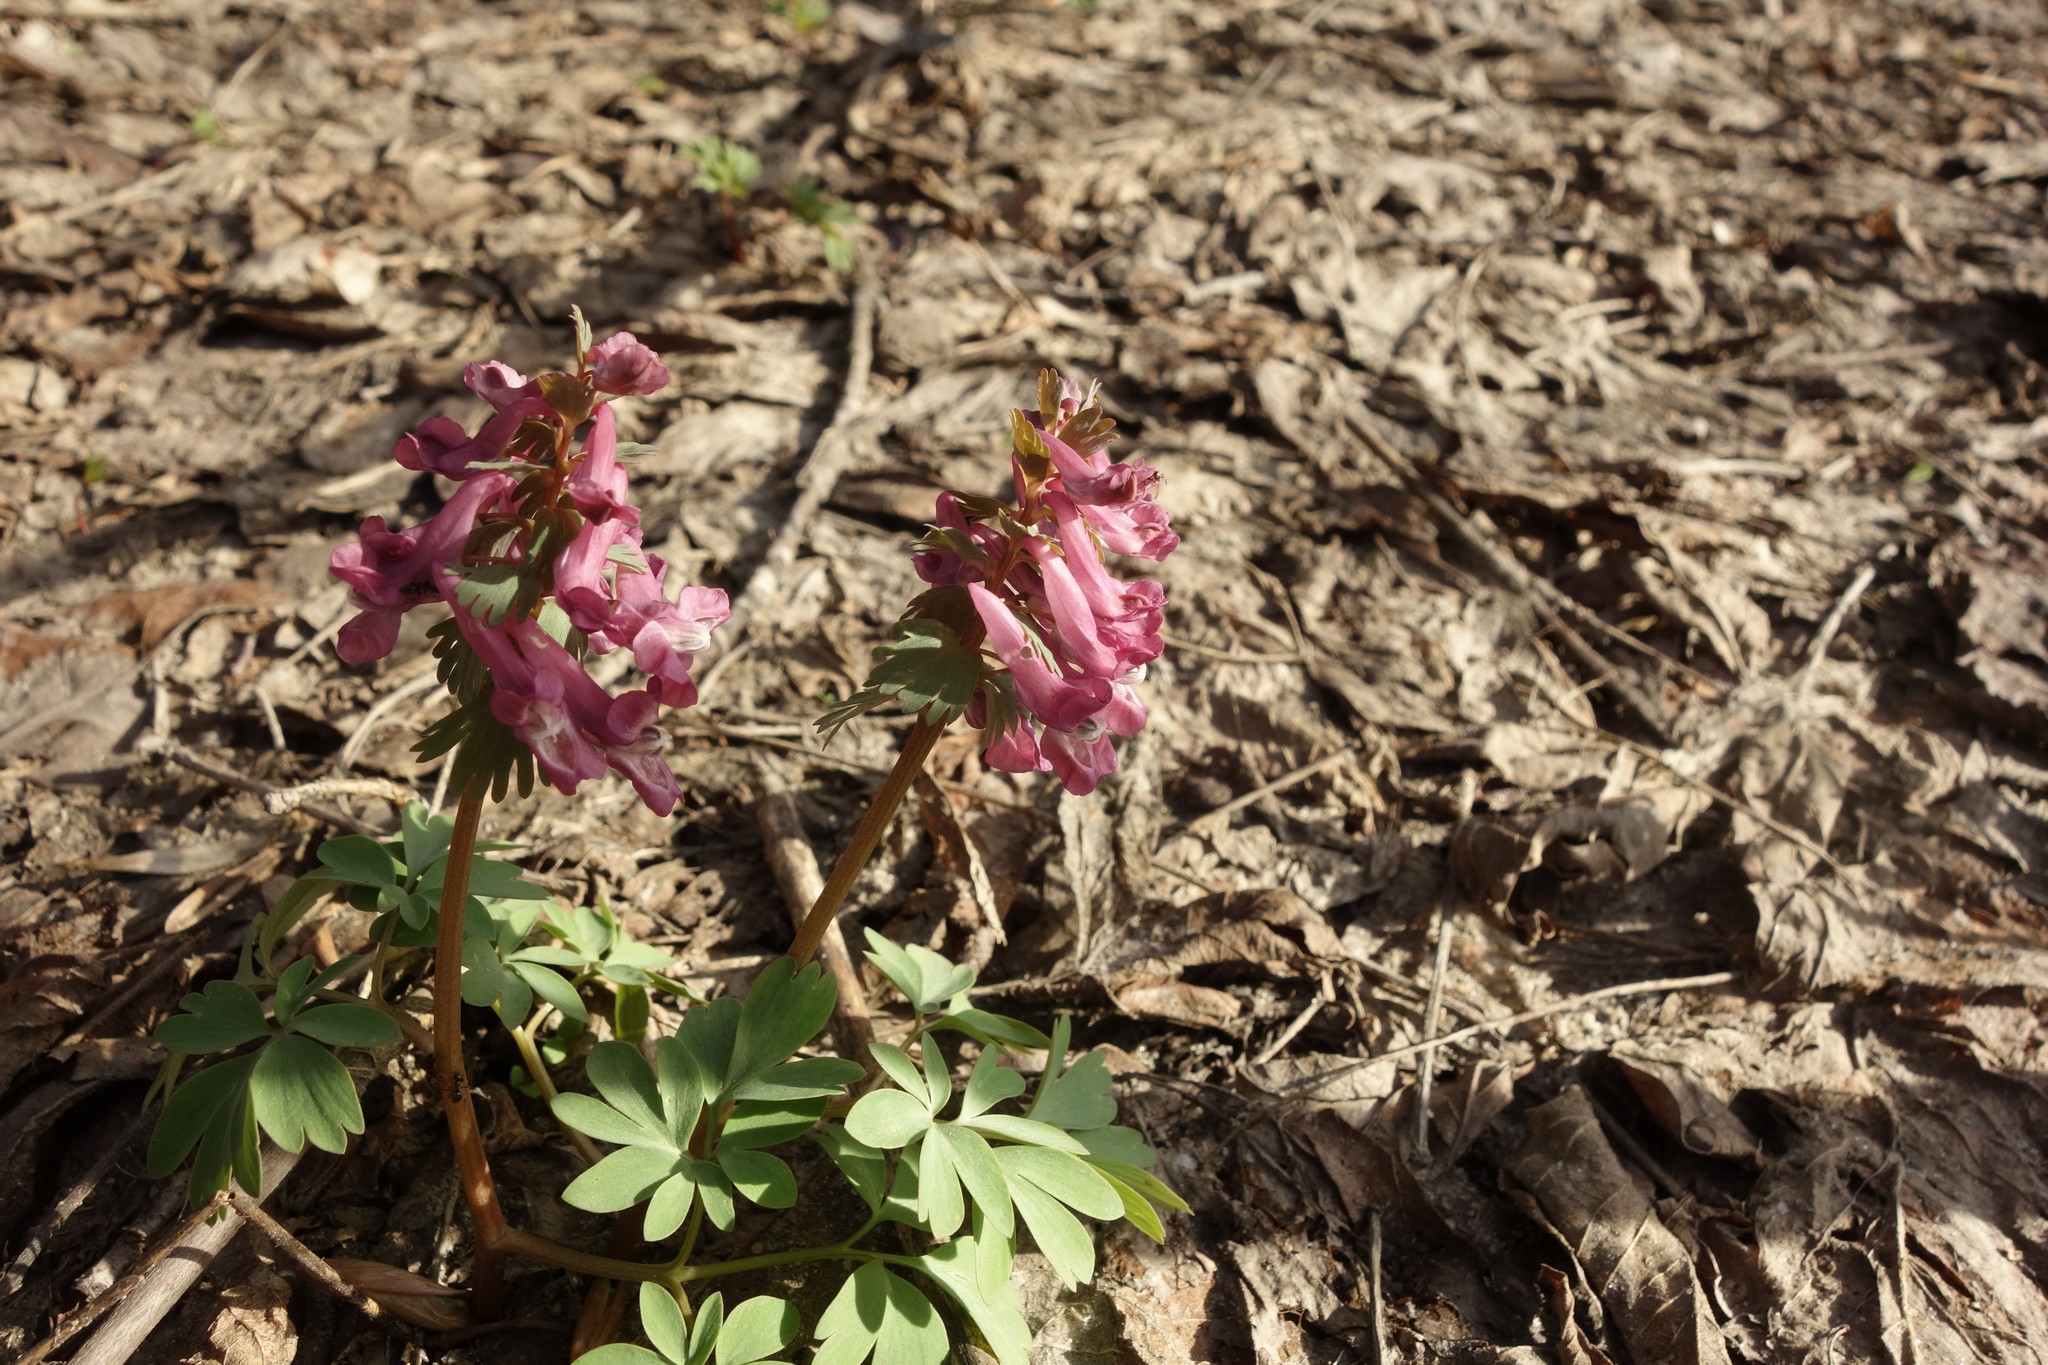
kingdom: Plantae
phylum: Tracheophyta
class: Magnoliopsida
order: Ranunculales
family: Papaveraceae
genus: Corydalis
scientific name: Corydalis solida
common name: Bird-in-a-bush
